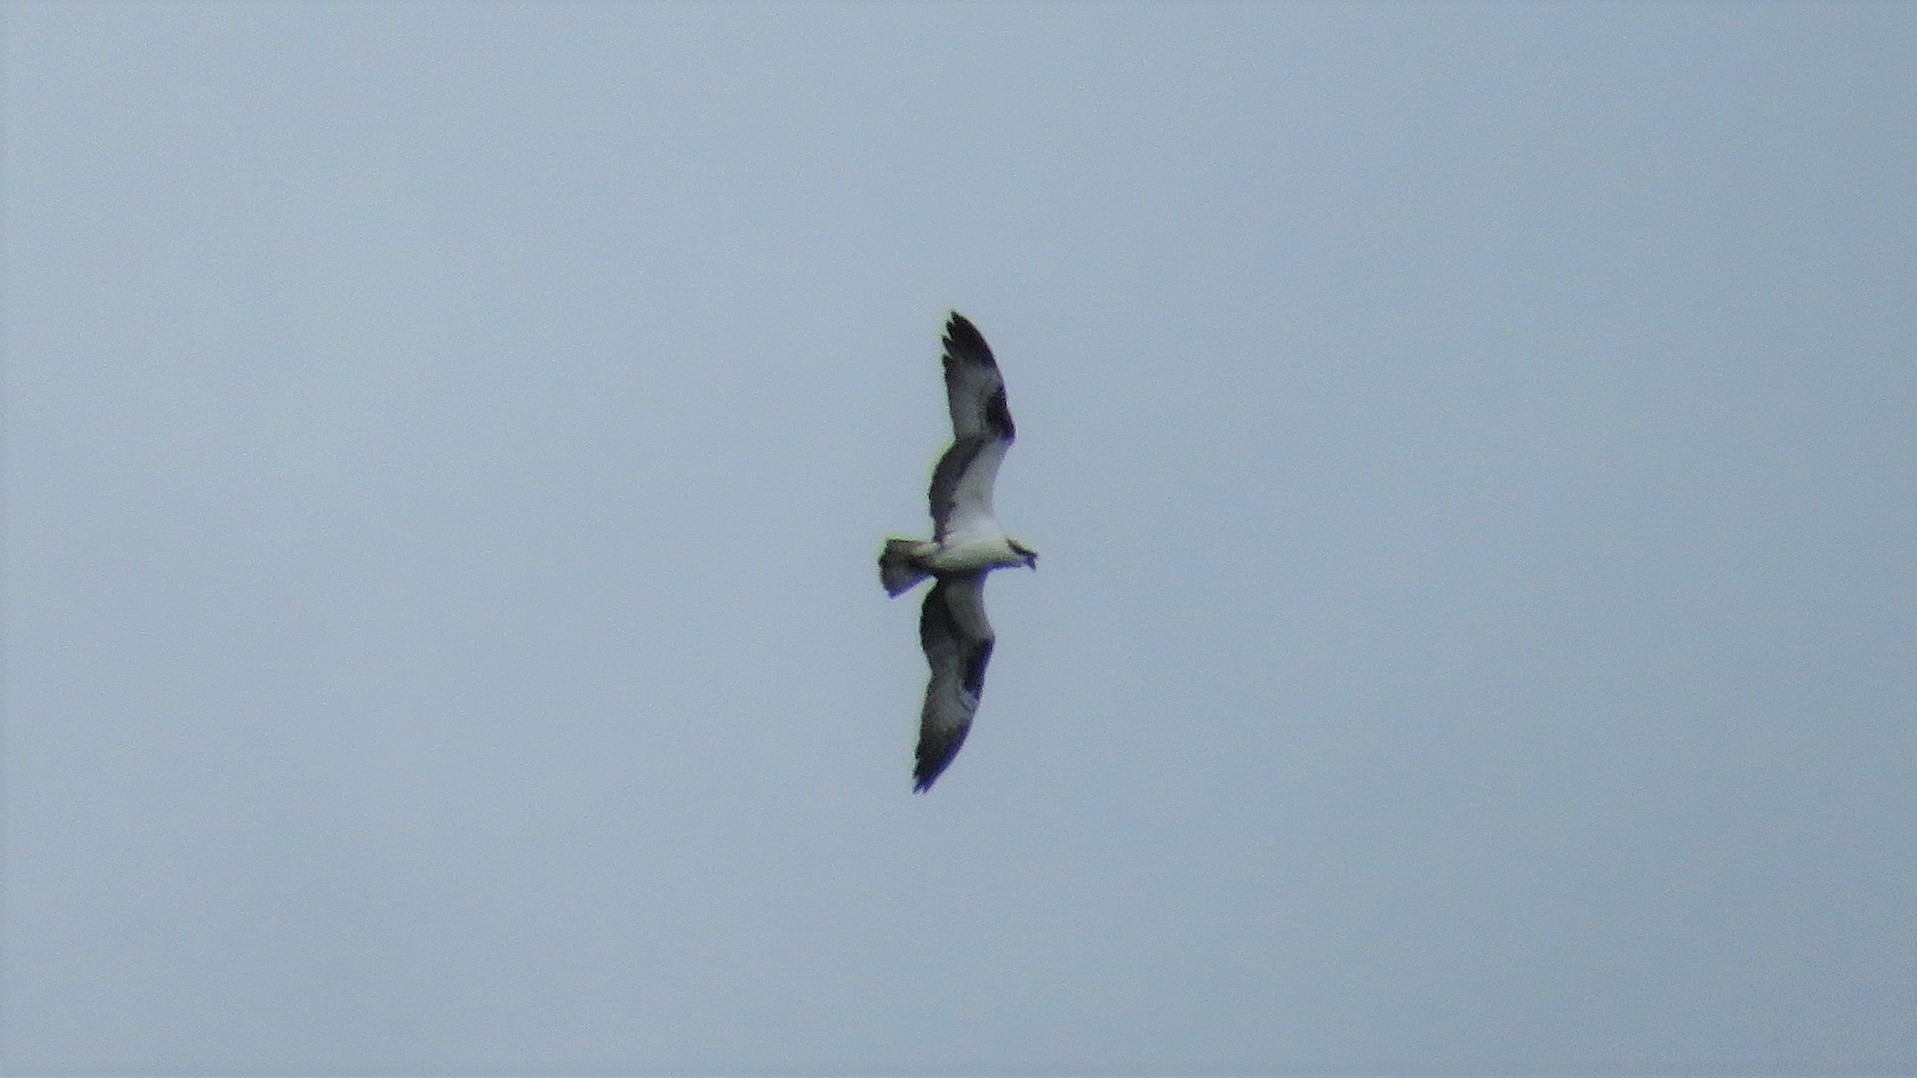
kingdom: Animalia
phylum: Chordata
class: Aves
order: Accipitriformes
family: Pandionidae
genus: Pandion
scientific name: Pandion haliaetus
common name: Osprey
